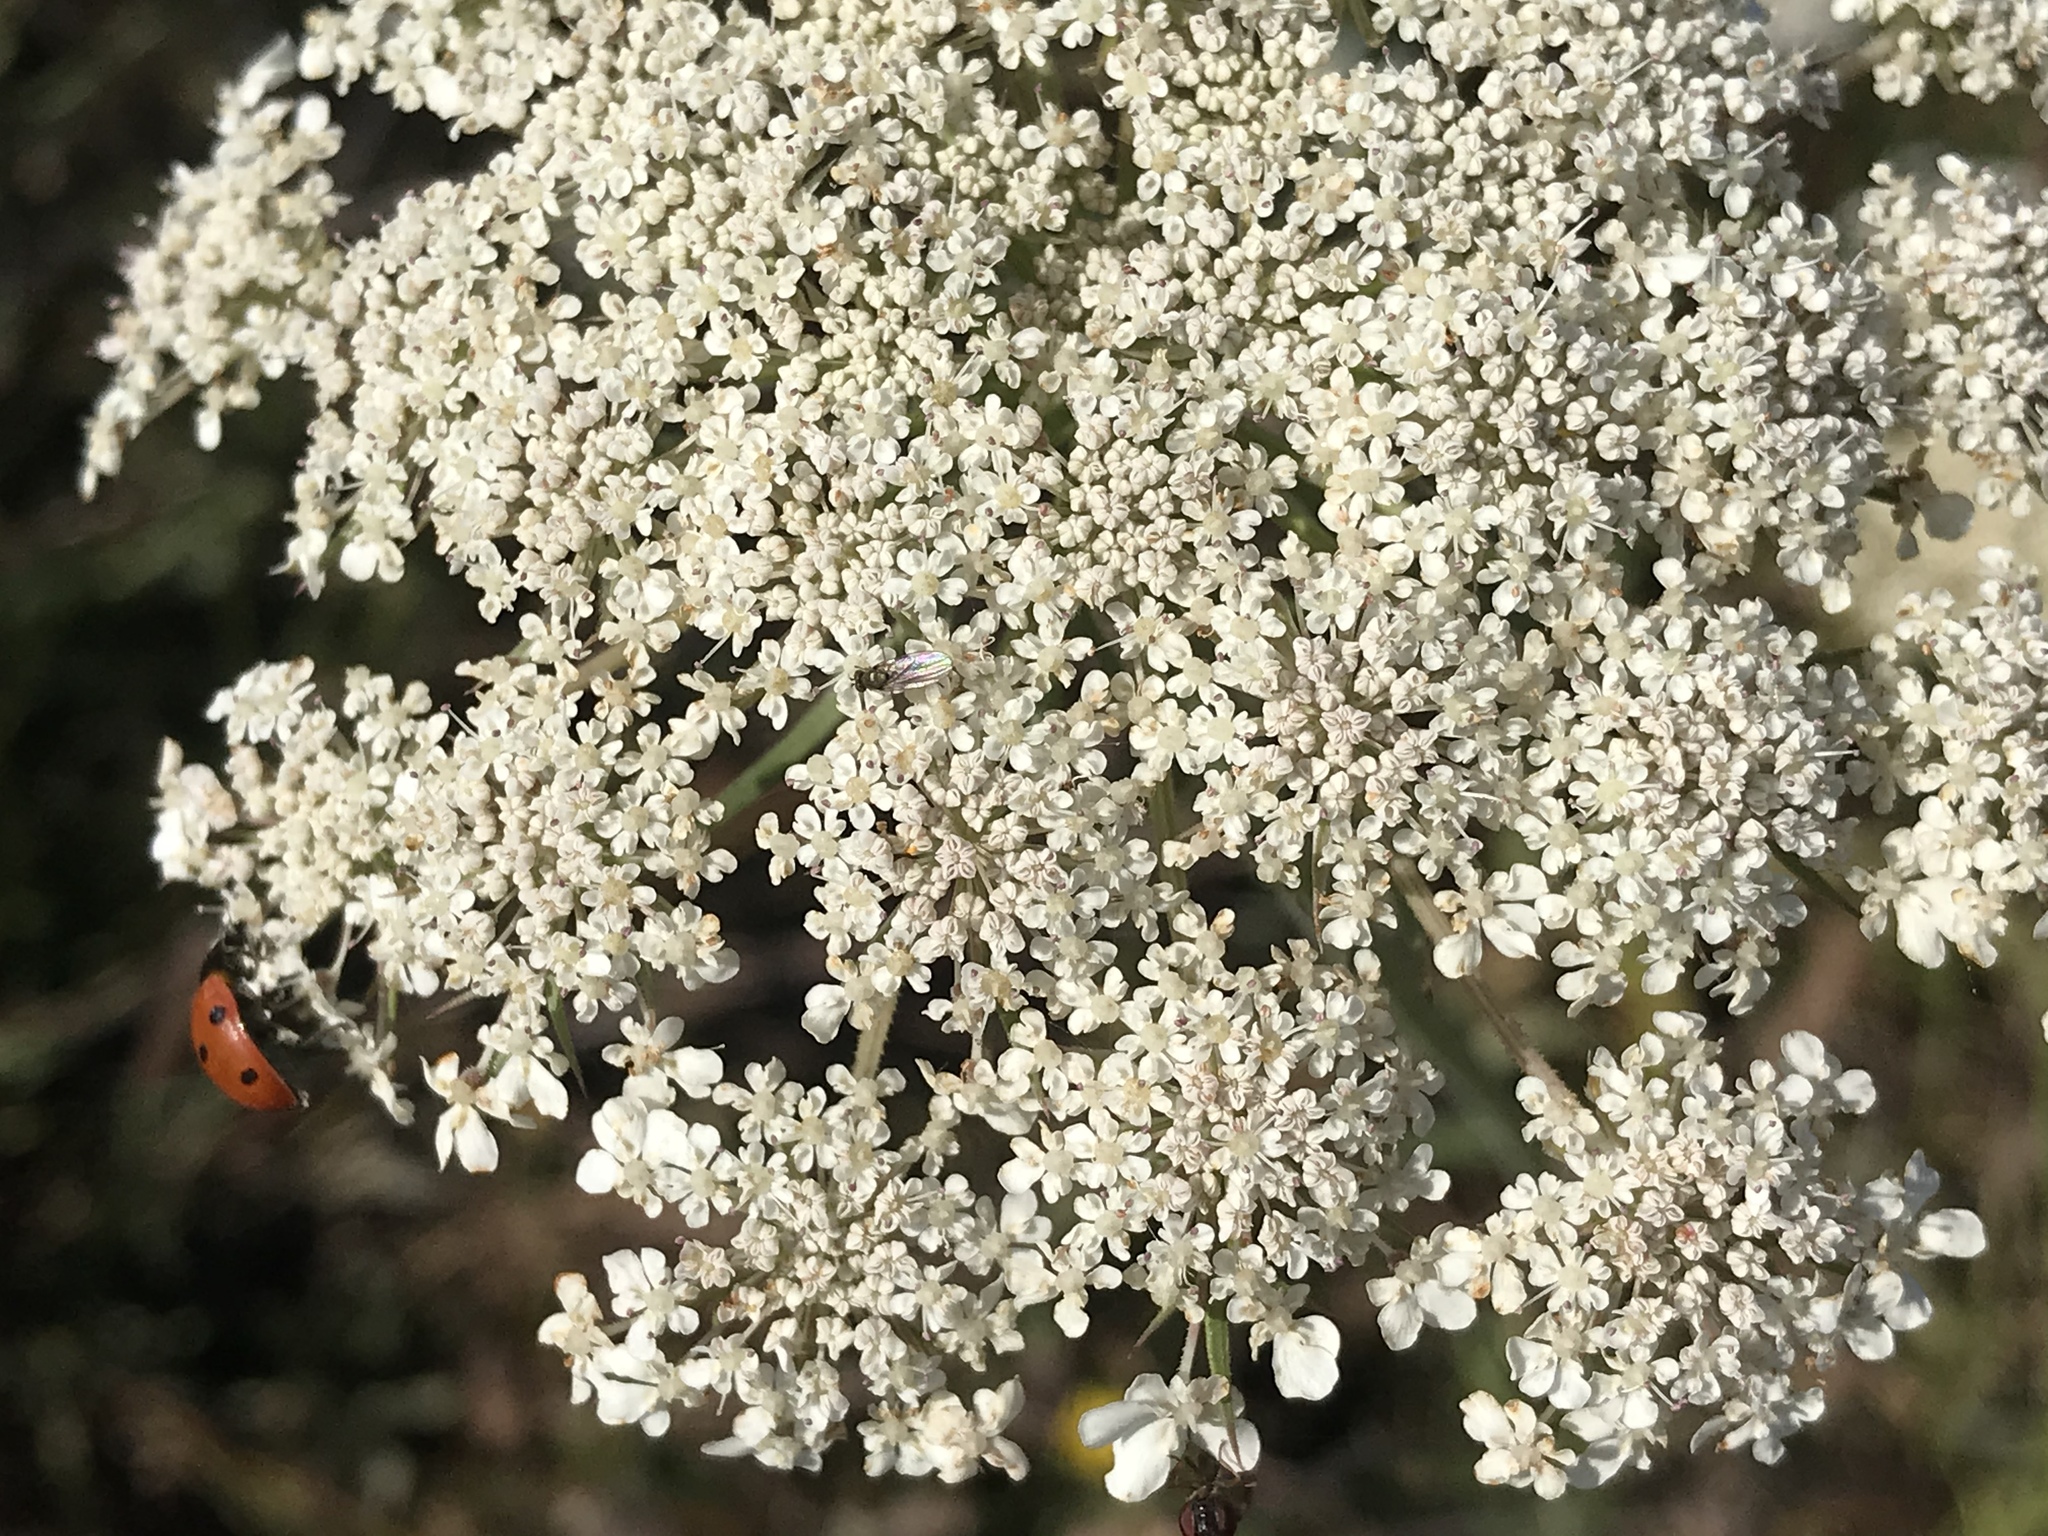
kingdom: Plantae
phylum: Tracheophyta
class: Magnoliopsida
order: Apiales
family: Apiaceae
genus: Daucus
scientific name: Daucus carota
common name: Wild carrot
